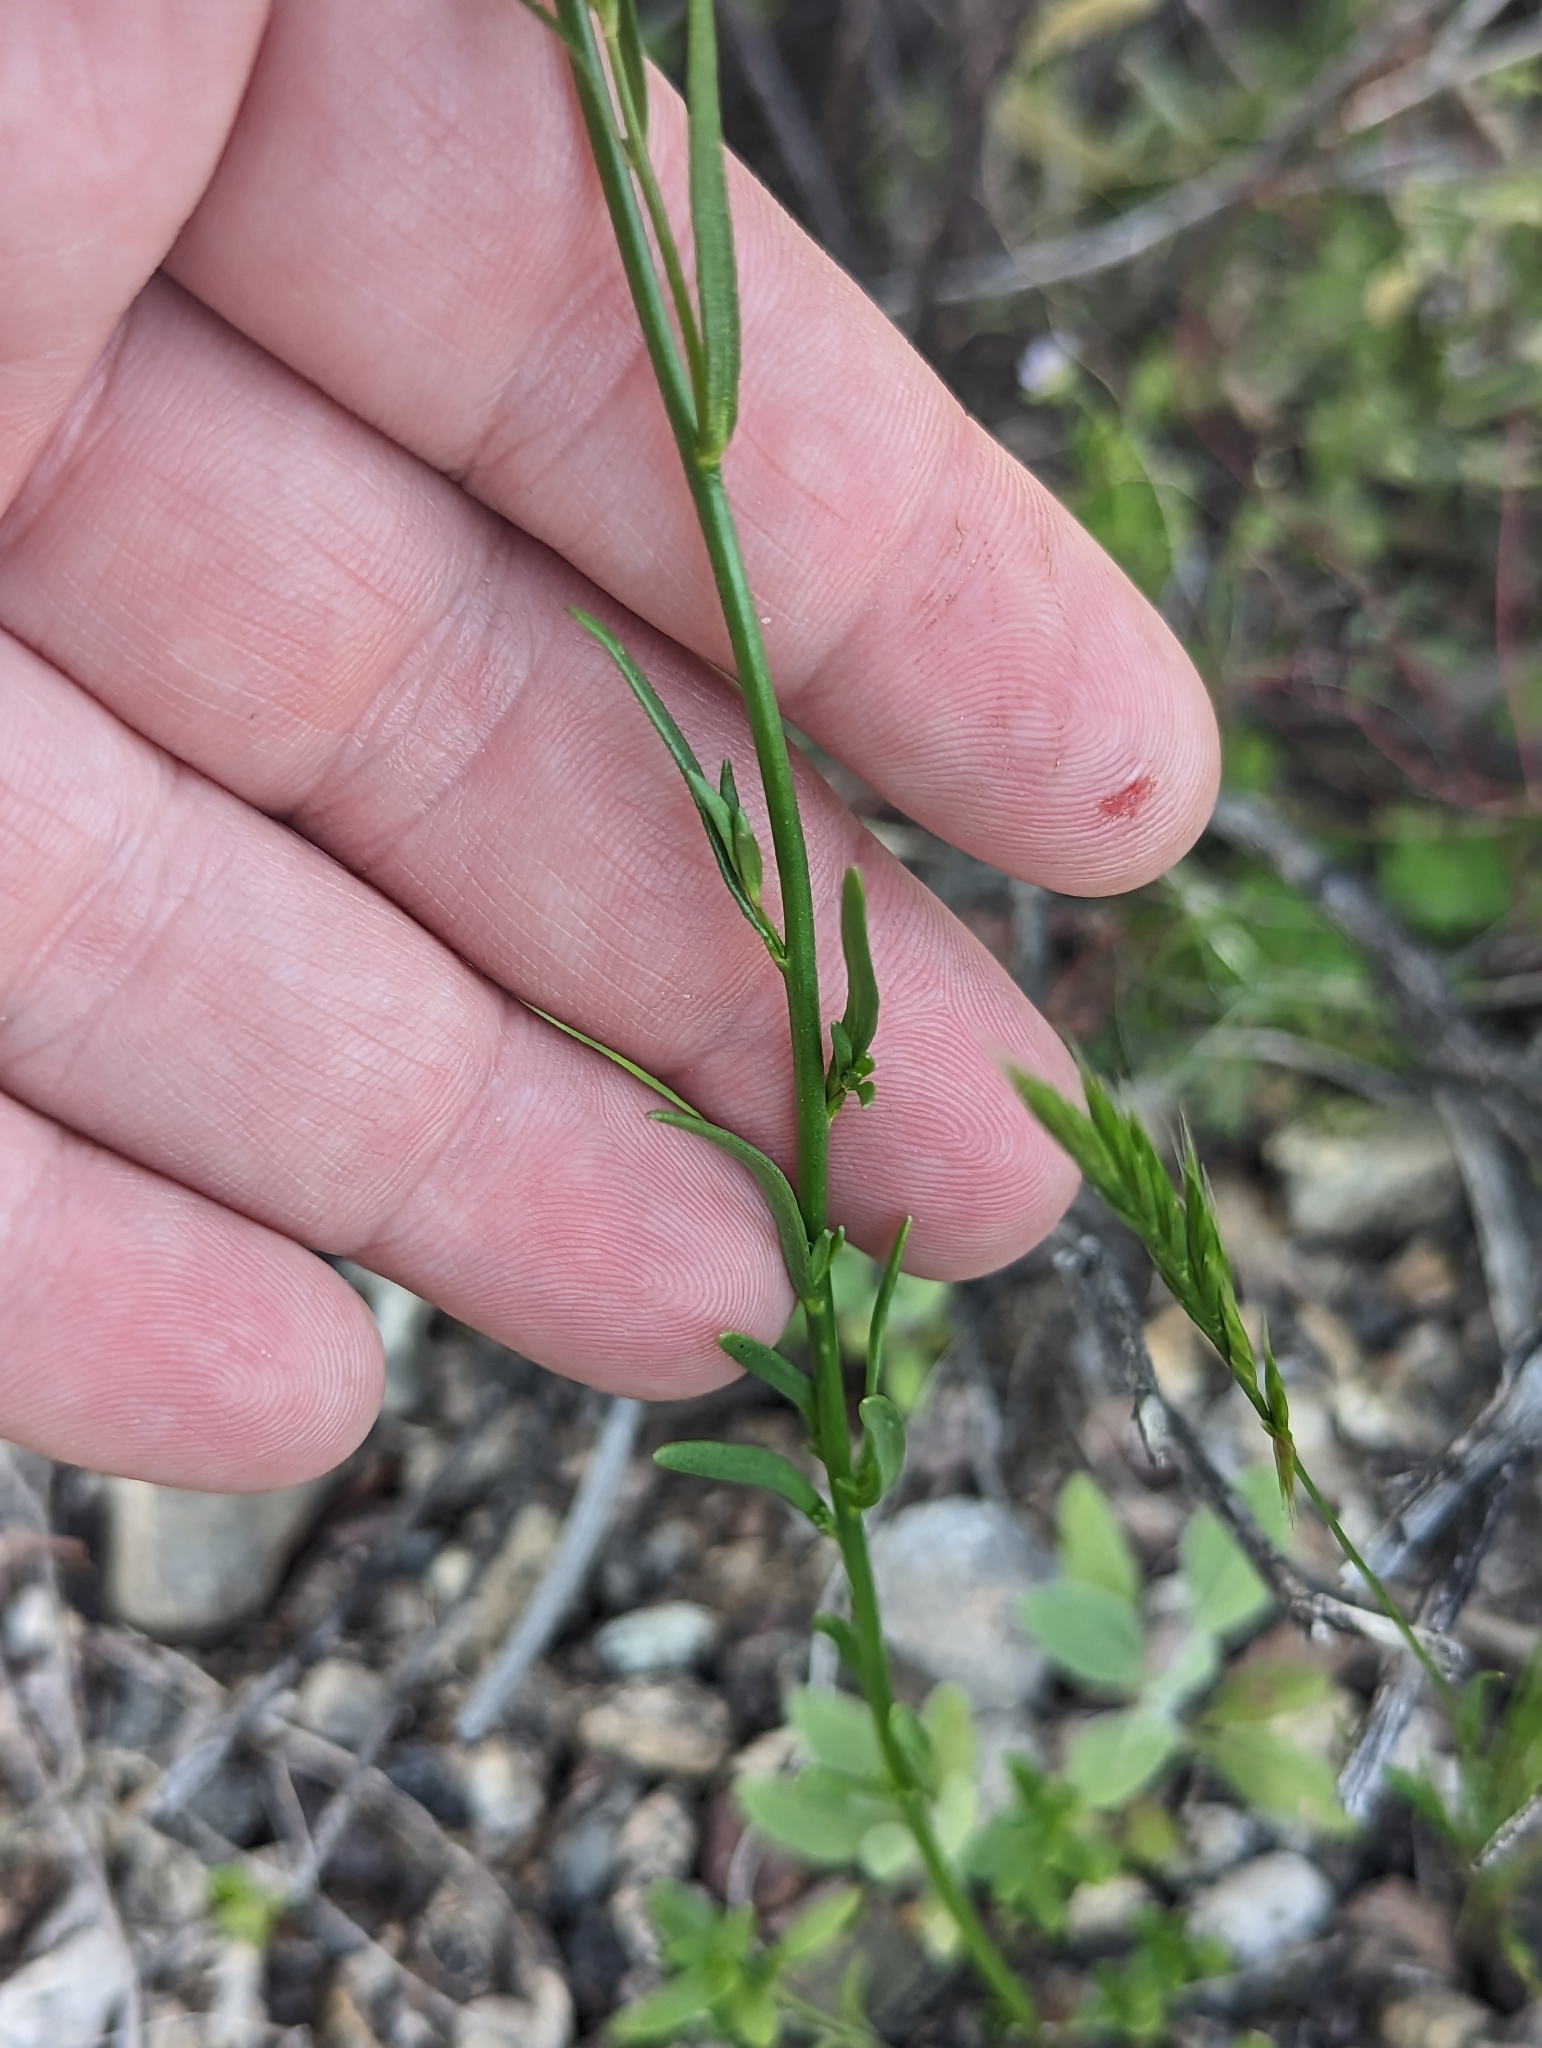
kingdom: Plantae
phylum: Tracheophyta
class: Magnoliopsida
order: Lamiales
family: Plantaginaceae
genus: Nuttallanthus
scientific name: Nuttallanthus texanus
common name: Texas toadflax
